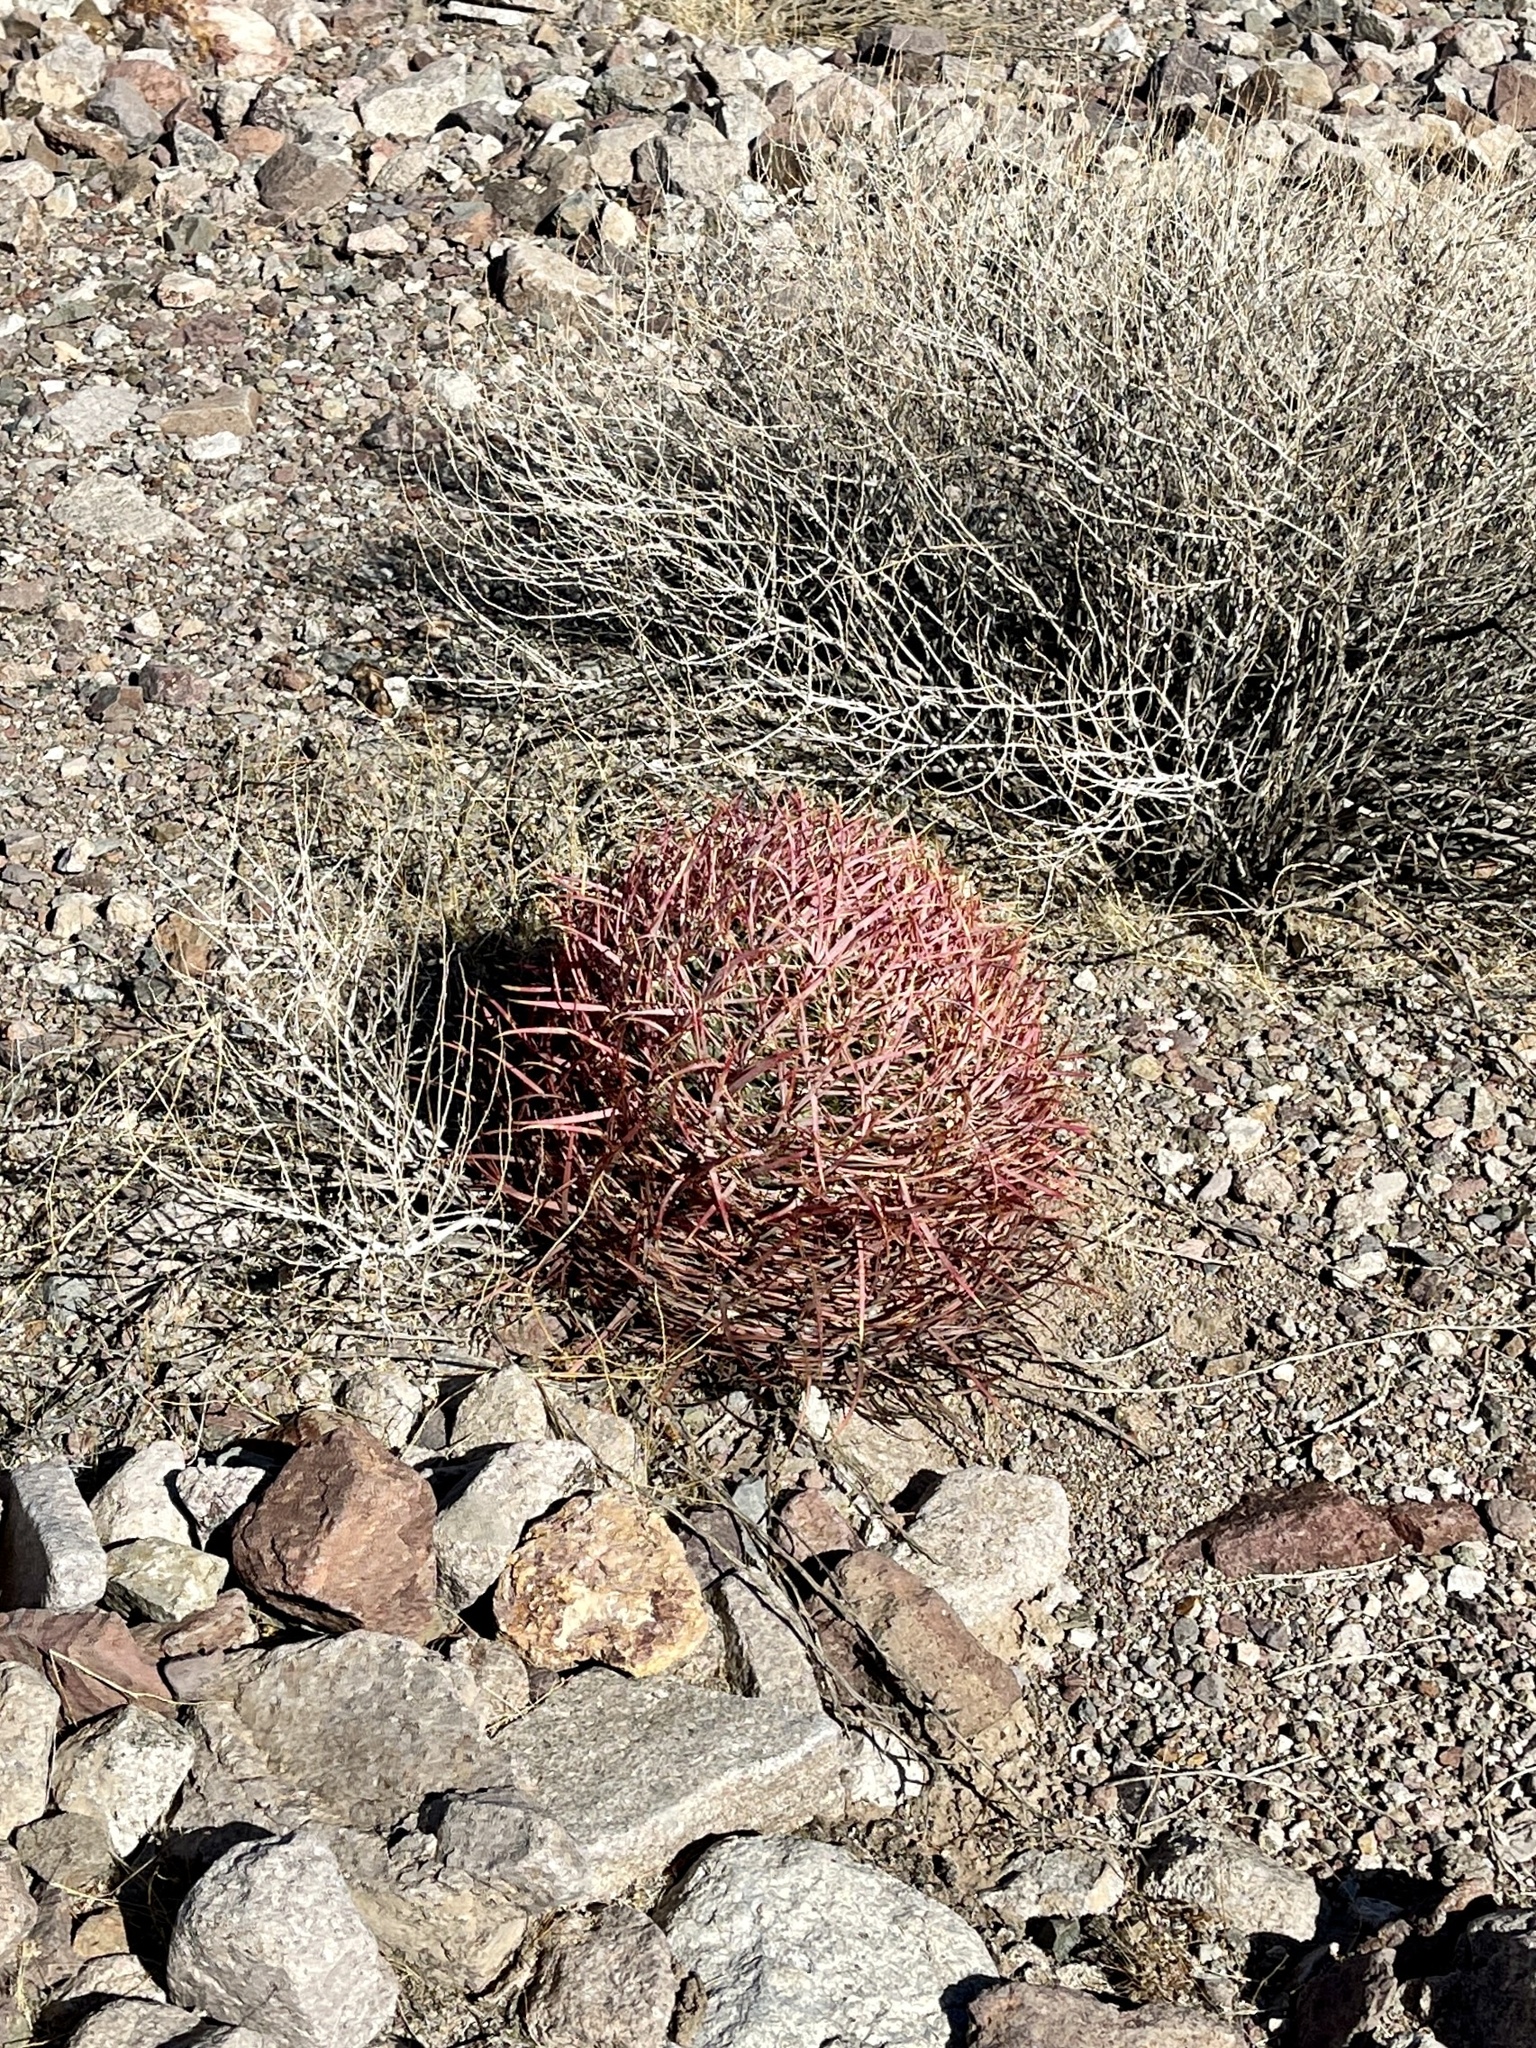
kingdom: Plantae
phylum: Tracheophyta
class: Magnoliopsida
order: Caryophyllales
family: Cactaceae
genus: Ferocactus
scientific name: Ferocactus cylindraceus
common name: California barrel cactus
